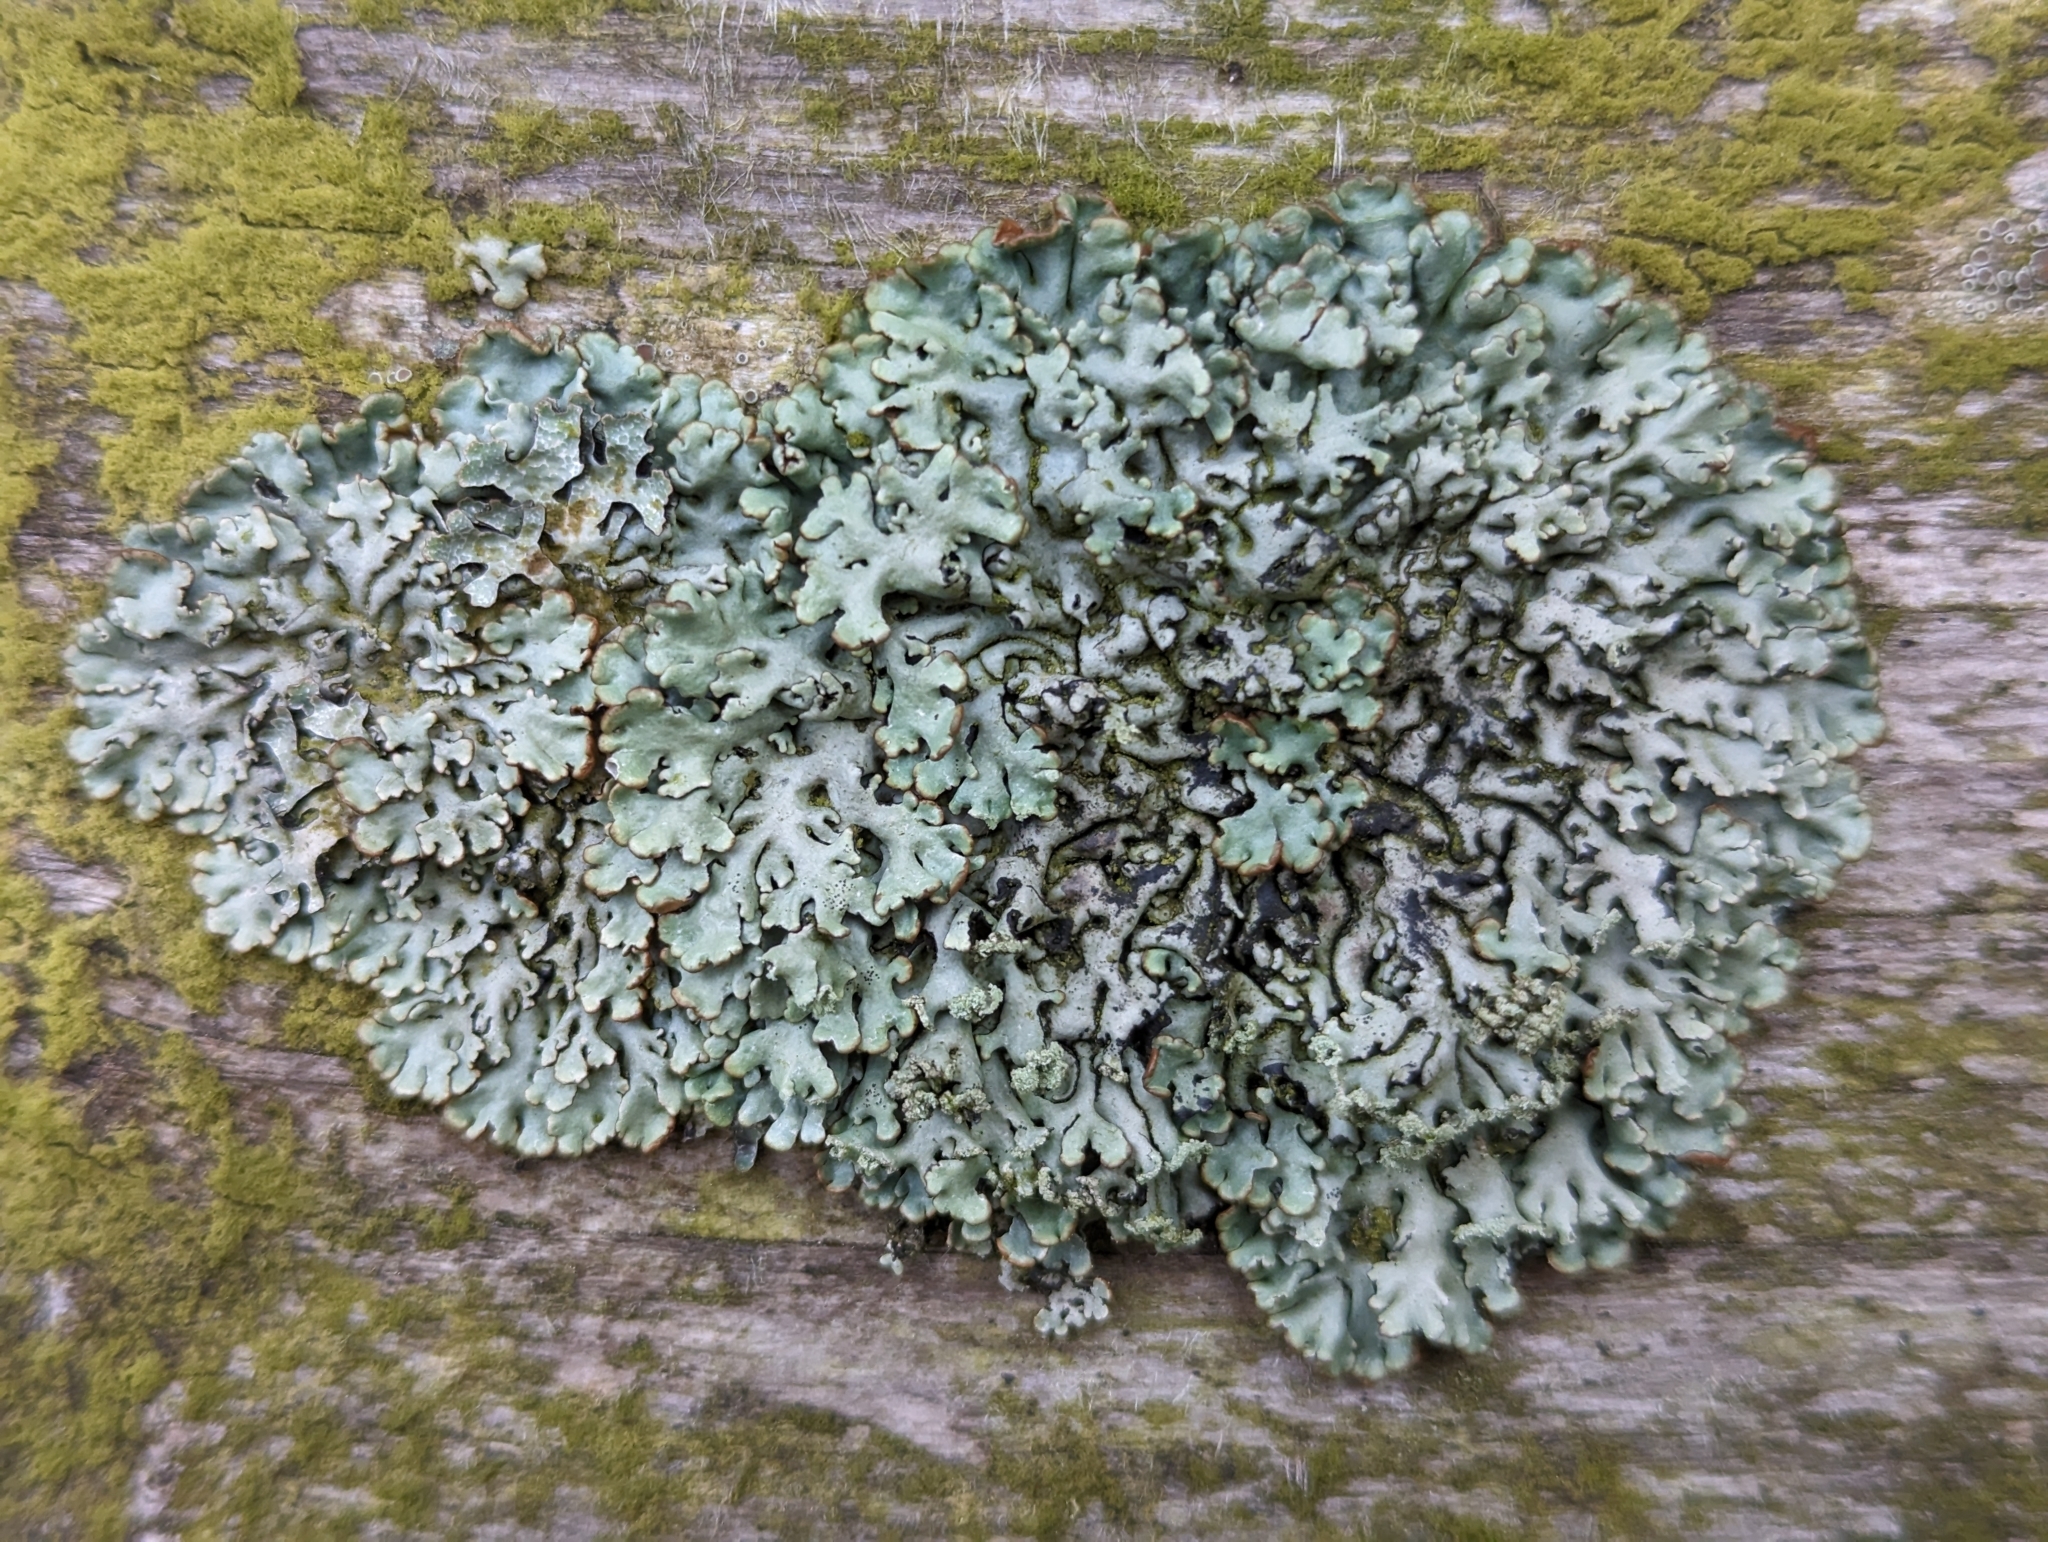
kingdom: Fungi
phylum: Ascomycota
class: Lecanoromycetes
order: Lecanorales
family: Parmeliaceae
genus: Hypogymnia
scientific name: Hypogymnia physodes
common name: Dark crottle
